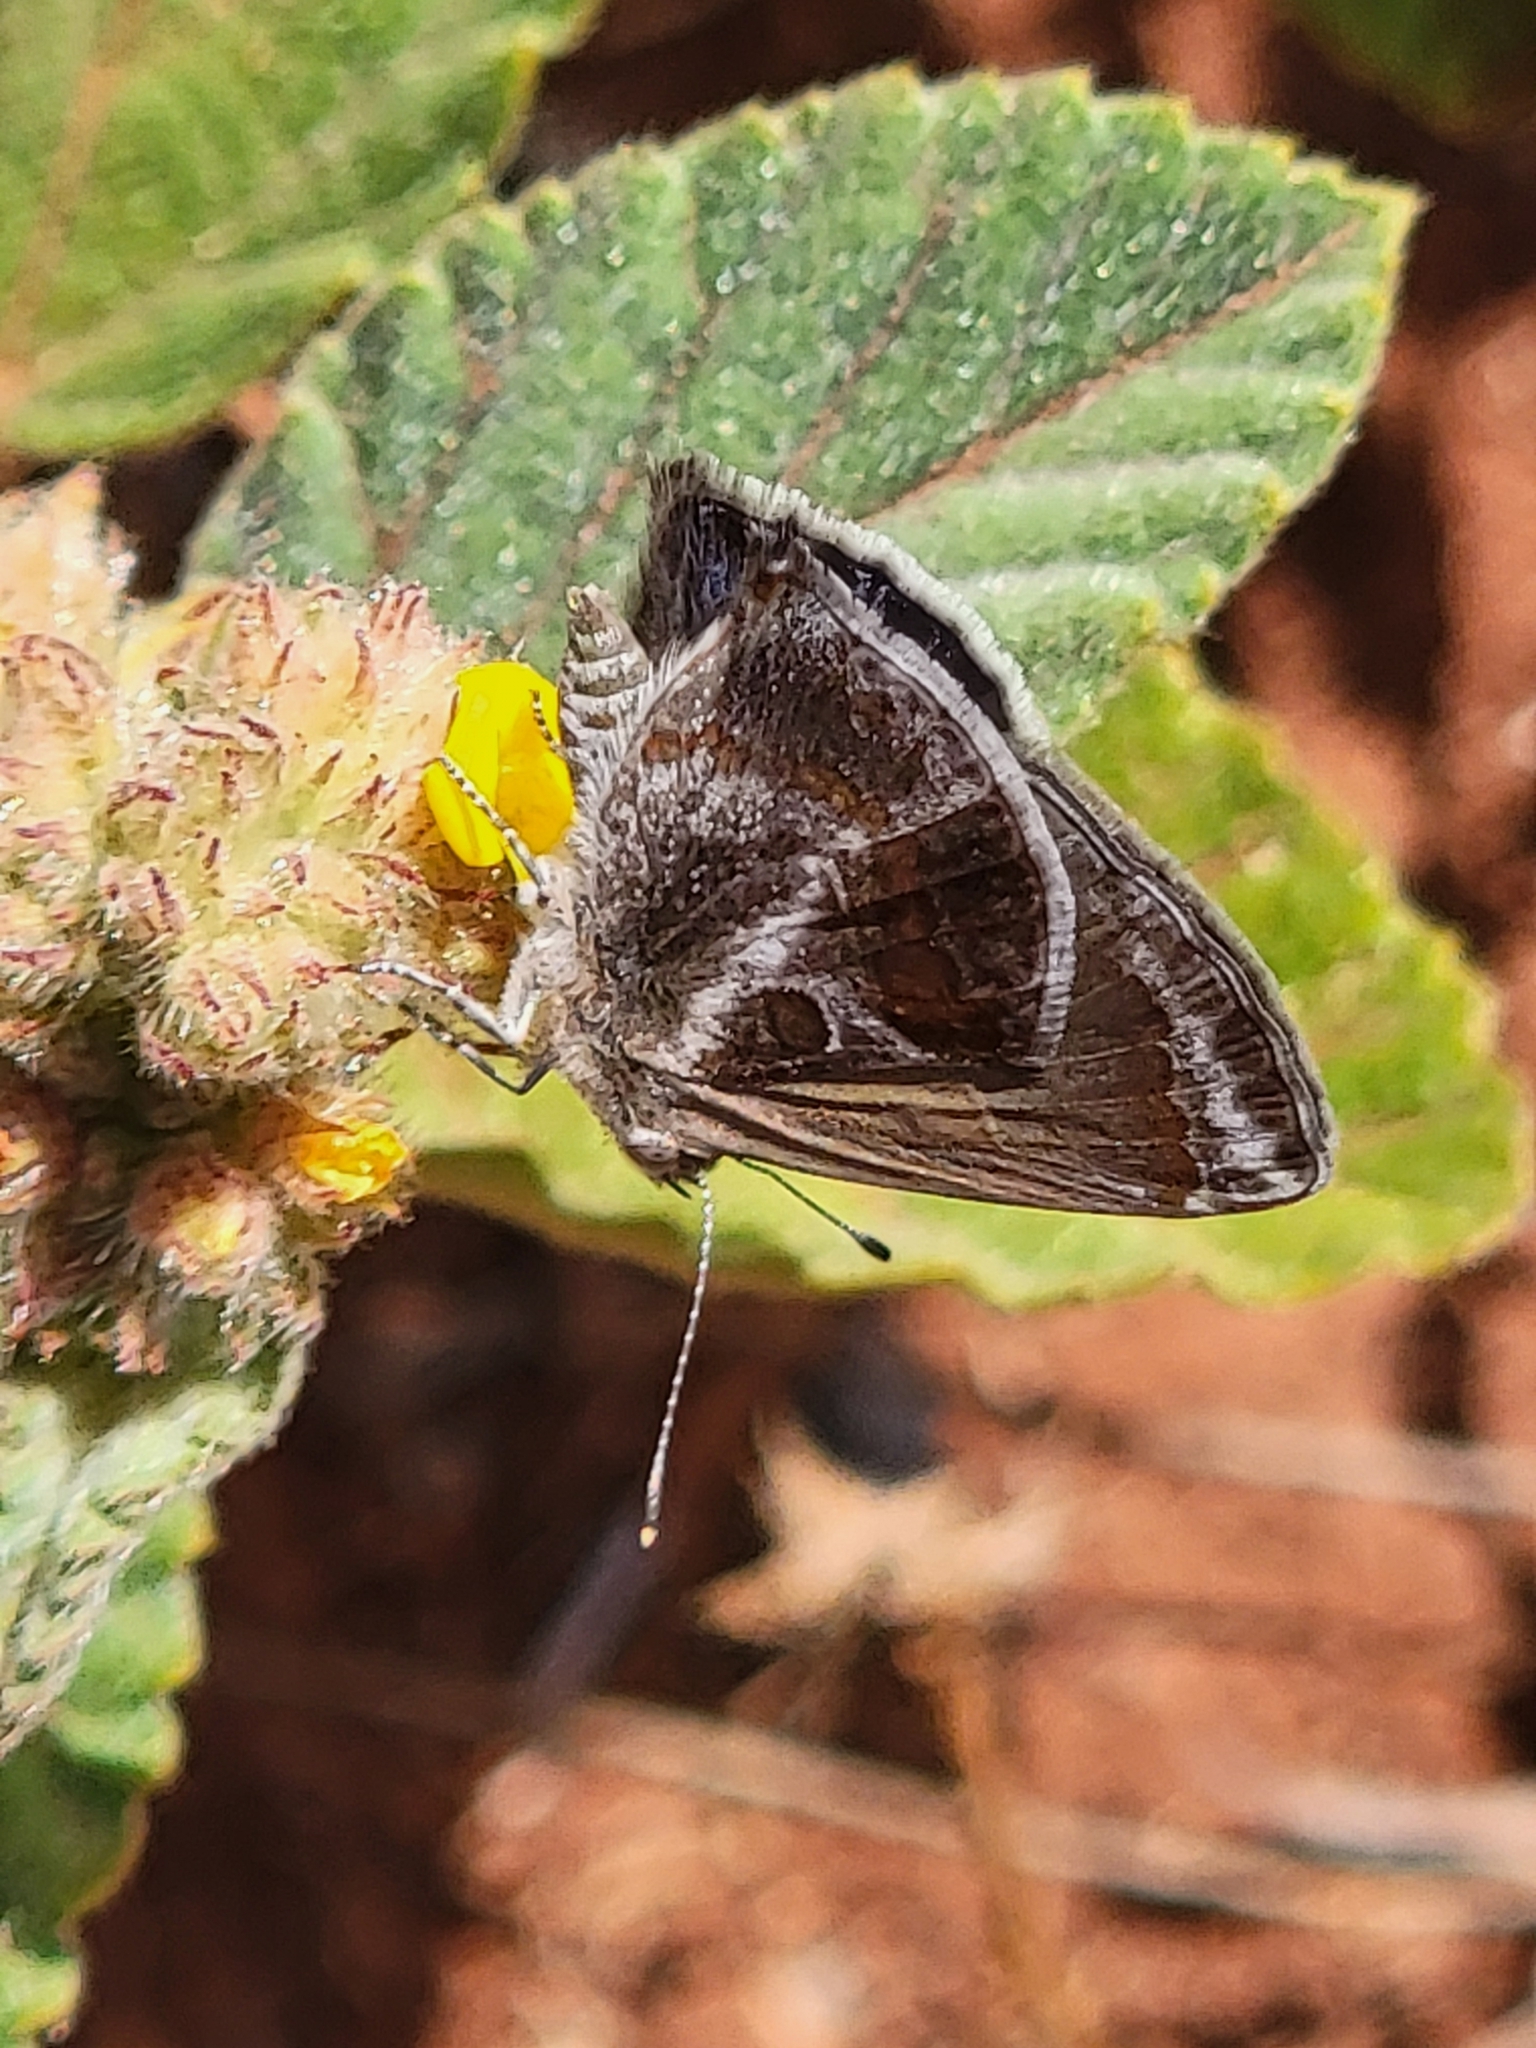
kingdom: Animalia
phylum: Arthropoda
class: Insecta
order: Lepidoptera
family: Lycaenidae
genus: Strymon
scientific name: Strymon bazochii
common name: Lantana scrub-hairstreak
